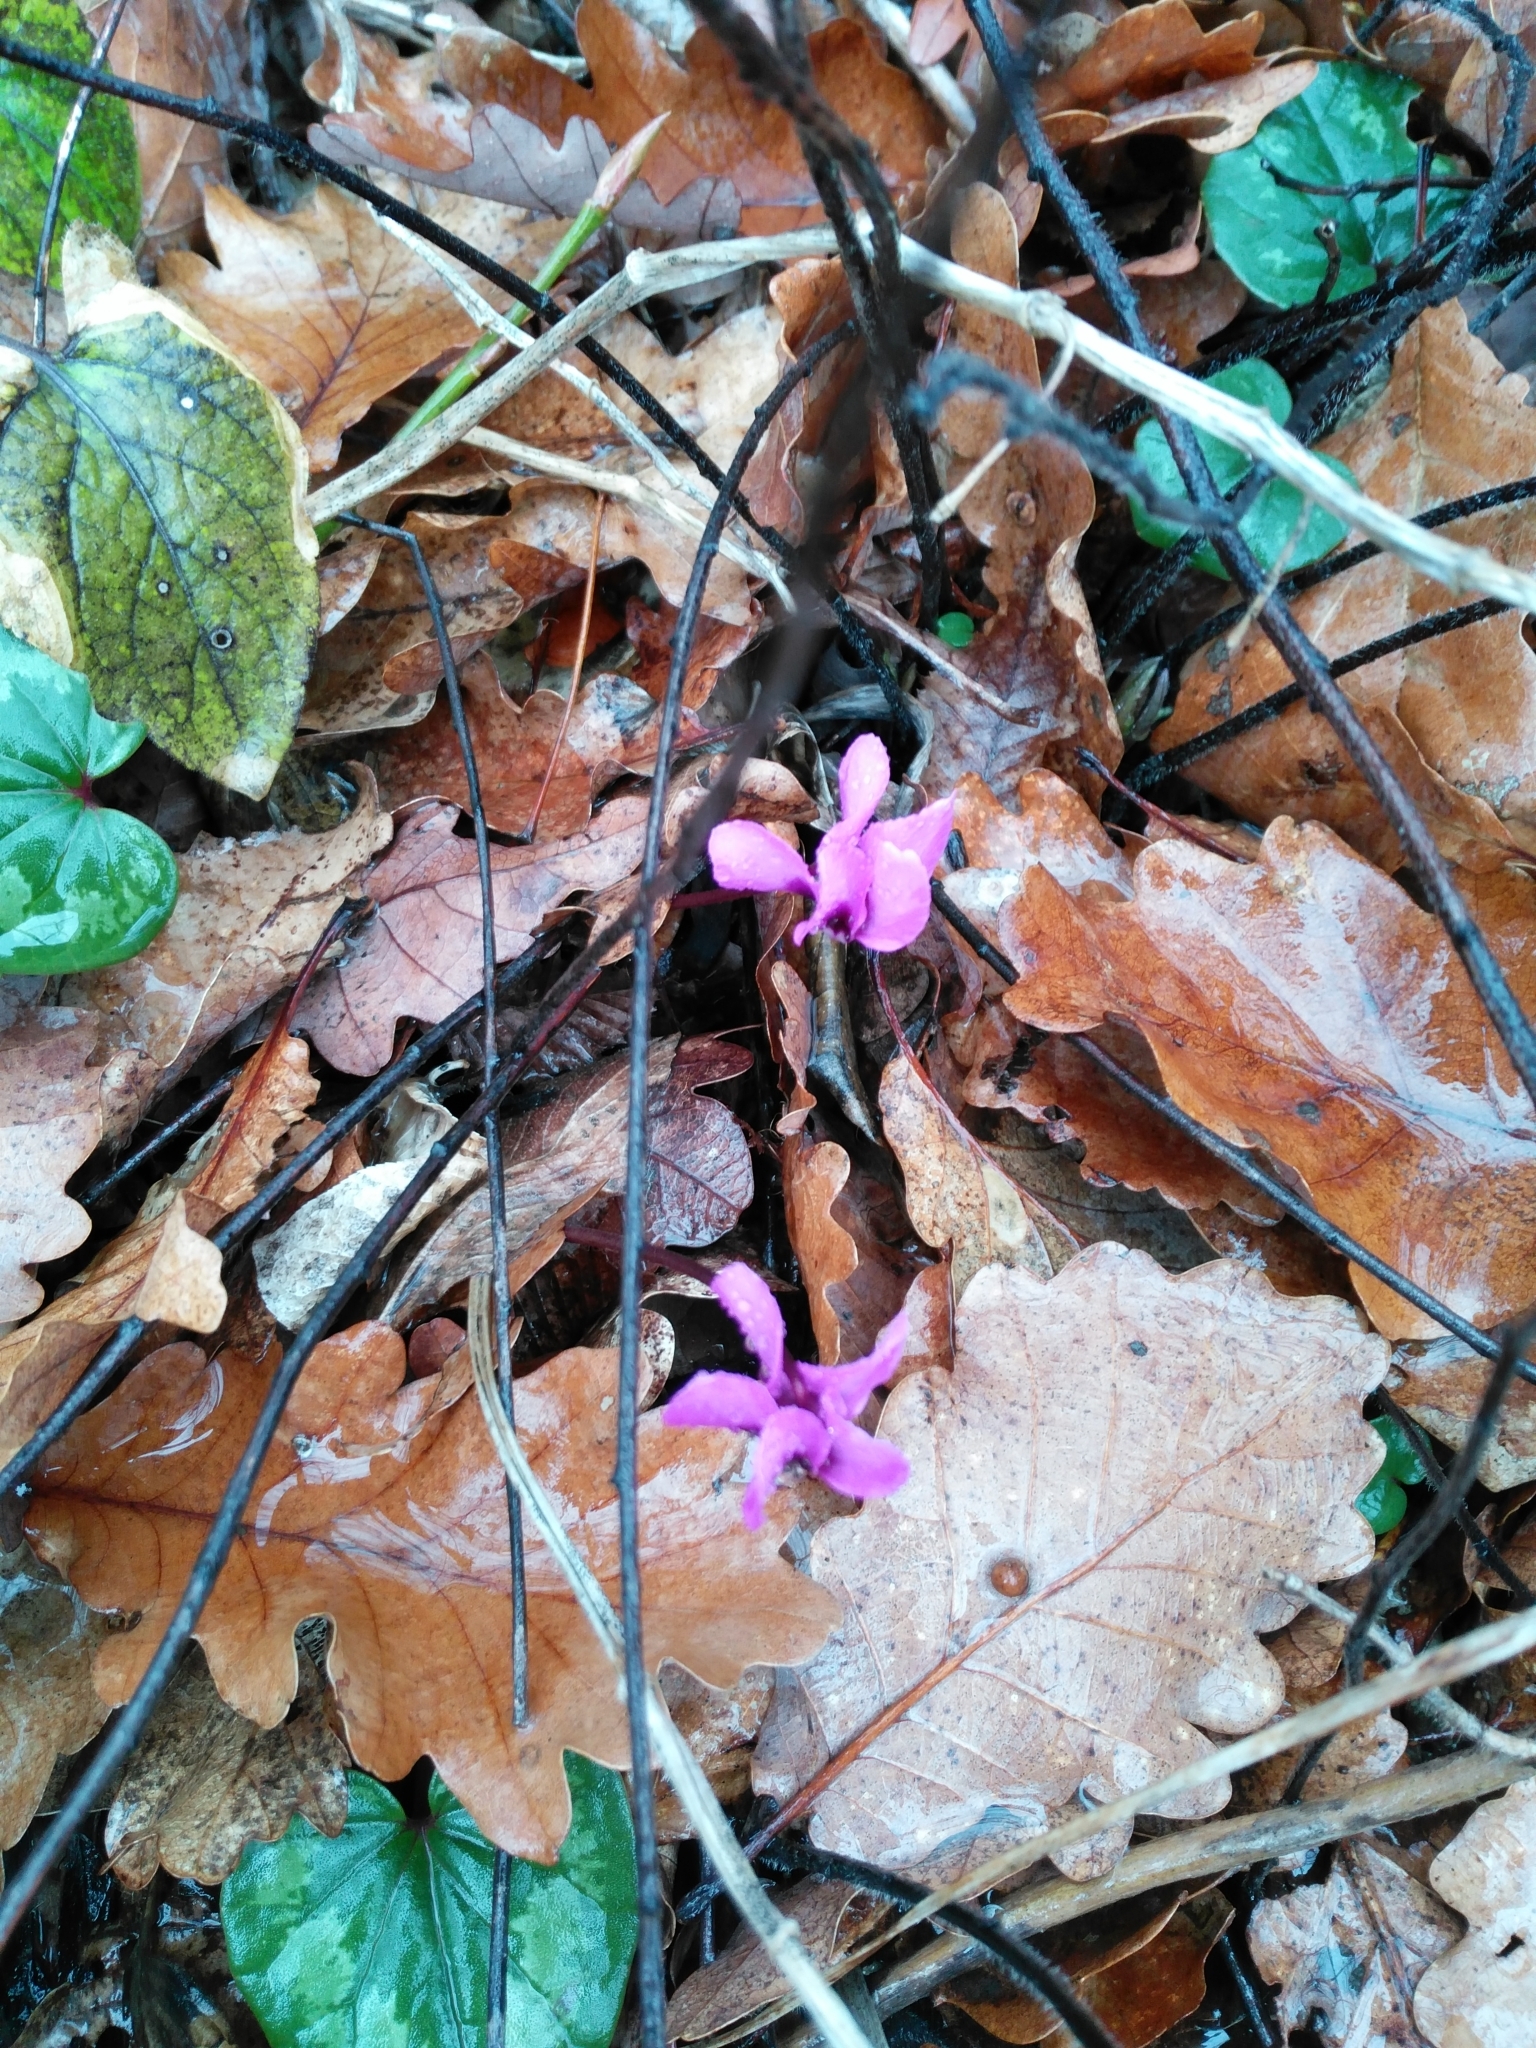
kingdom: Plantae
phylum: Tracheophyta
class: Magnoliopsida
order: Ericales
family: Primulaceae
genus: Cyclamen
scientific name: Cyclamen coum
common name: Eastern sowbread
